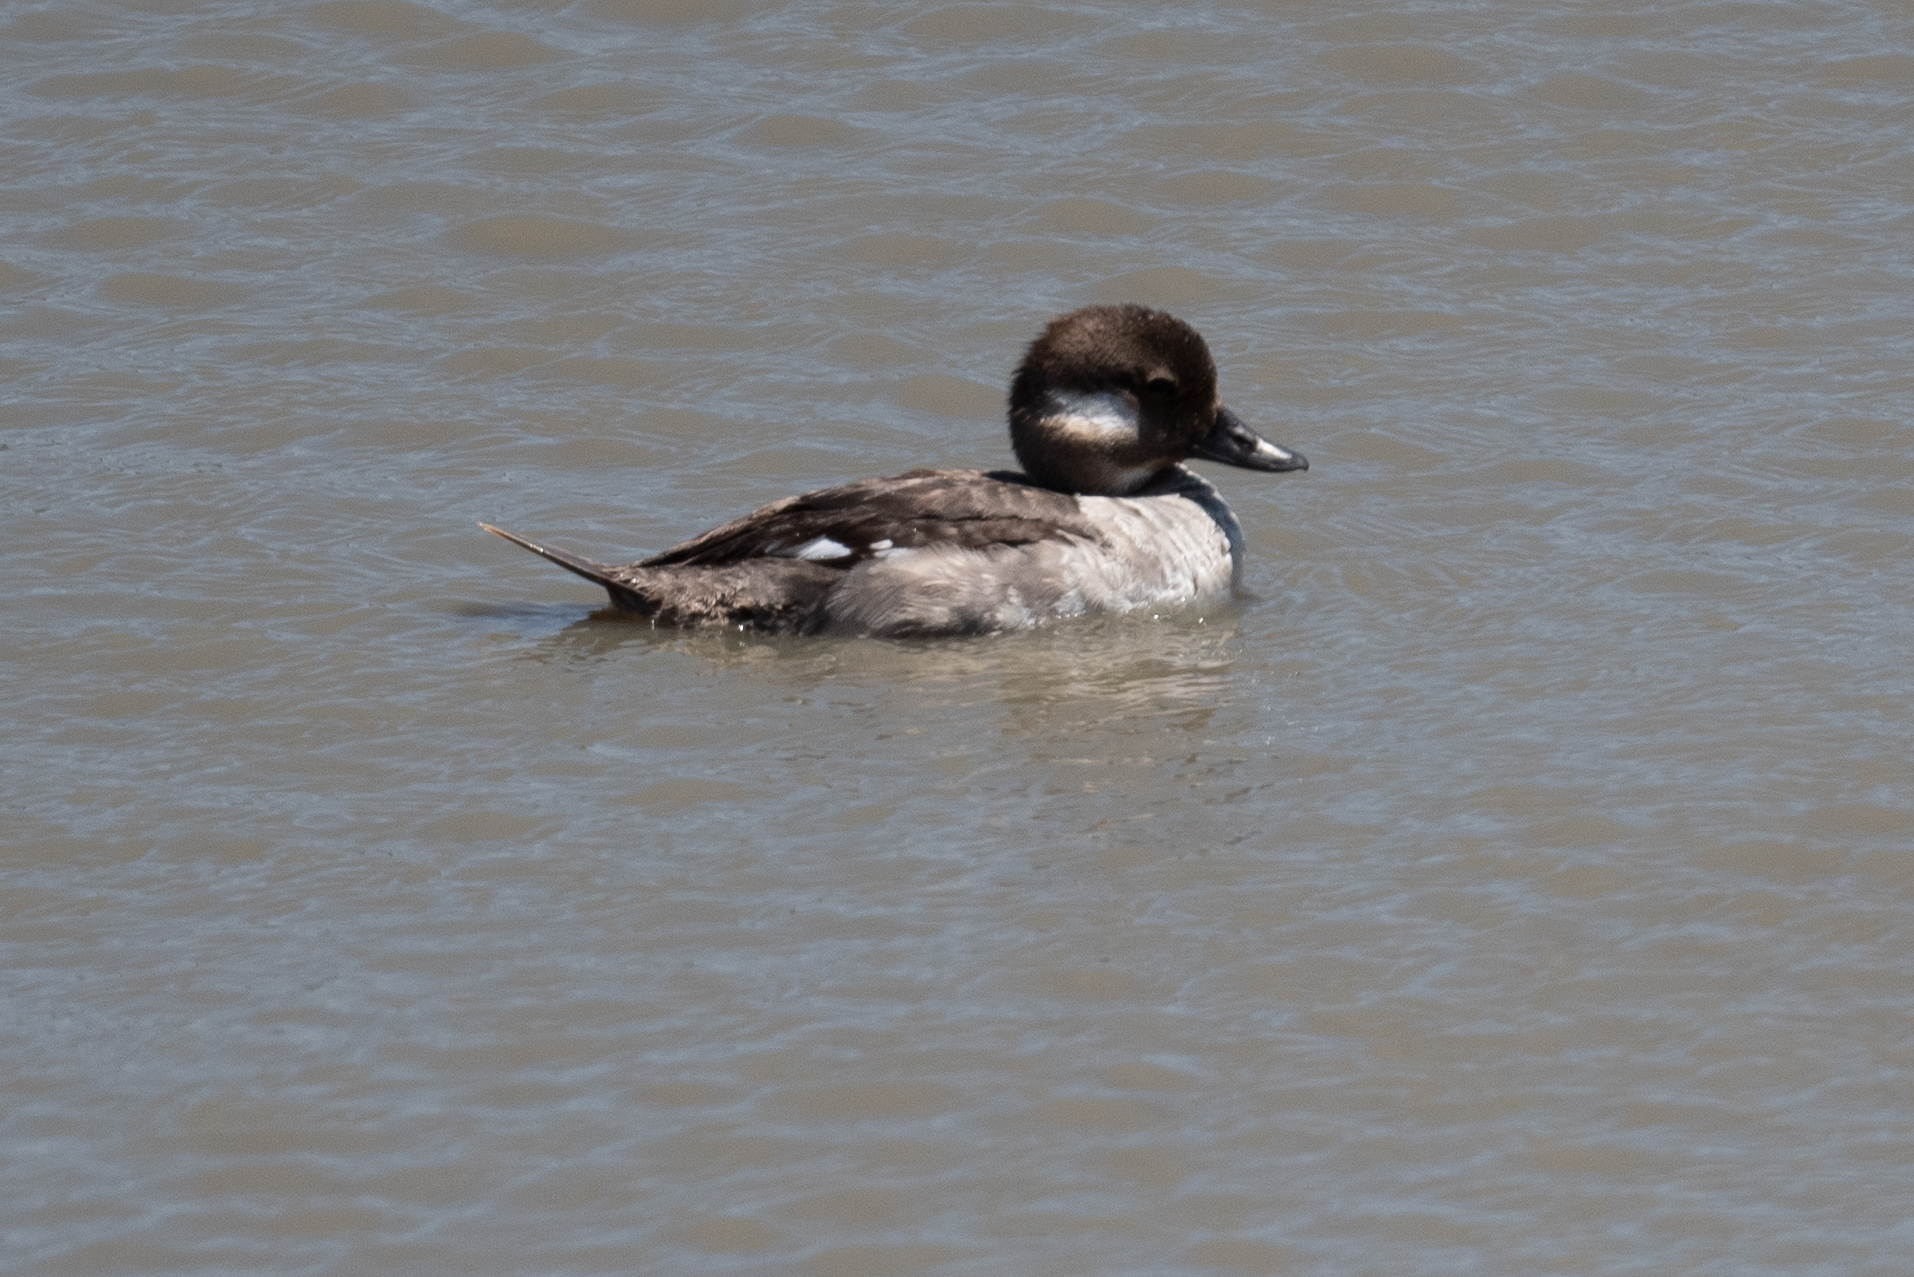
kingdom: Animalia
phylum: Chordata
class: Aves
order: Anseriformes
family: Anatidae
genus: Bucephala
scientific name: Bucephala albeola
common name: Bufflehead
